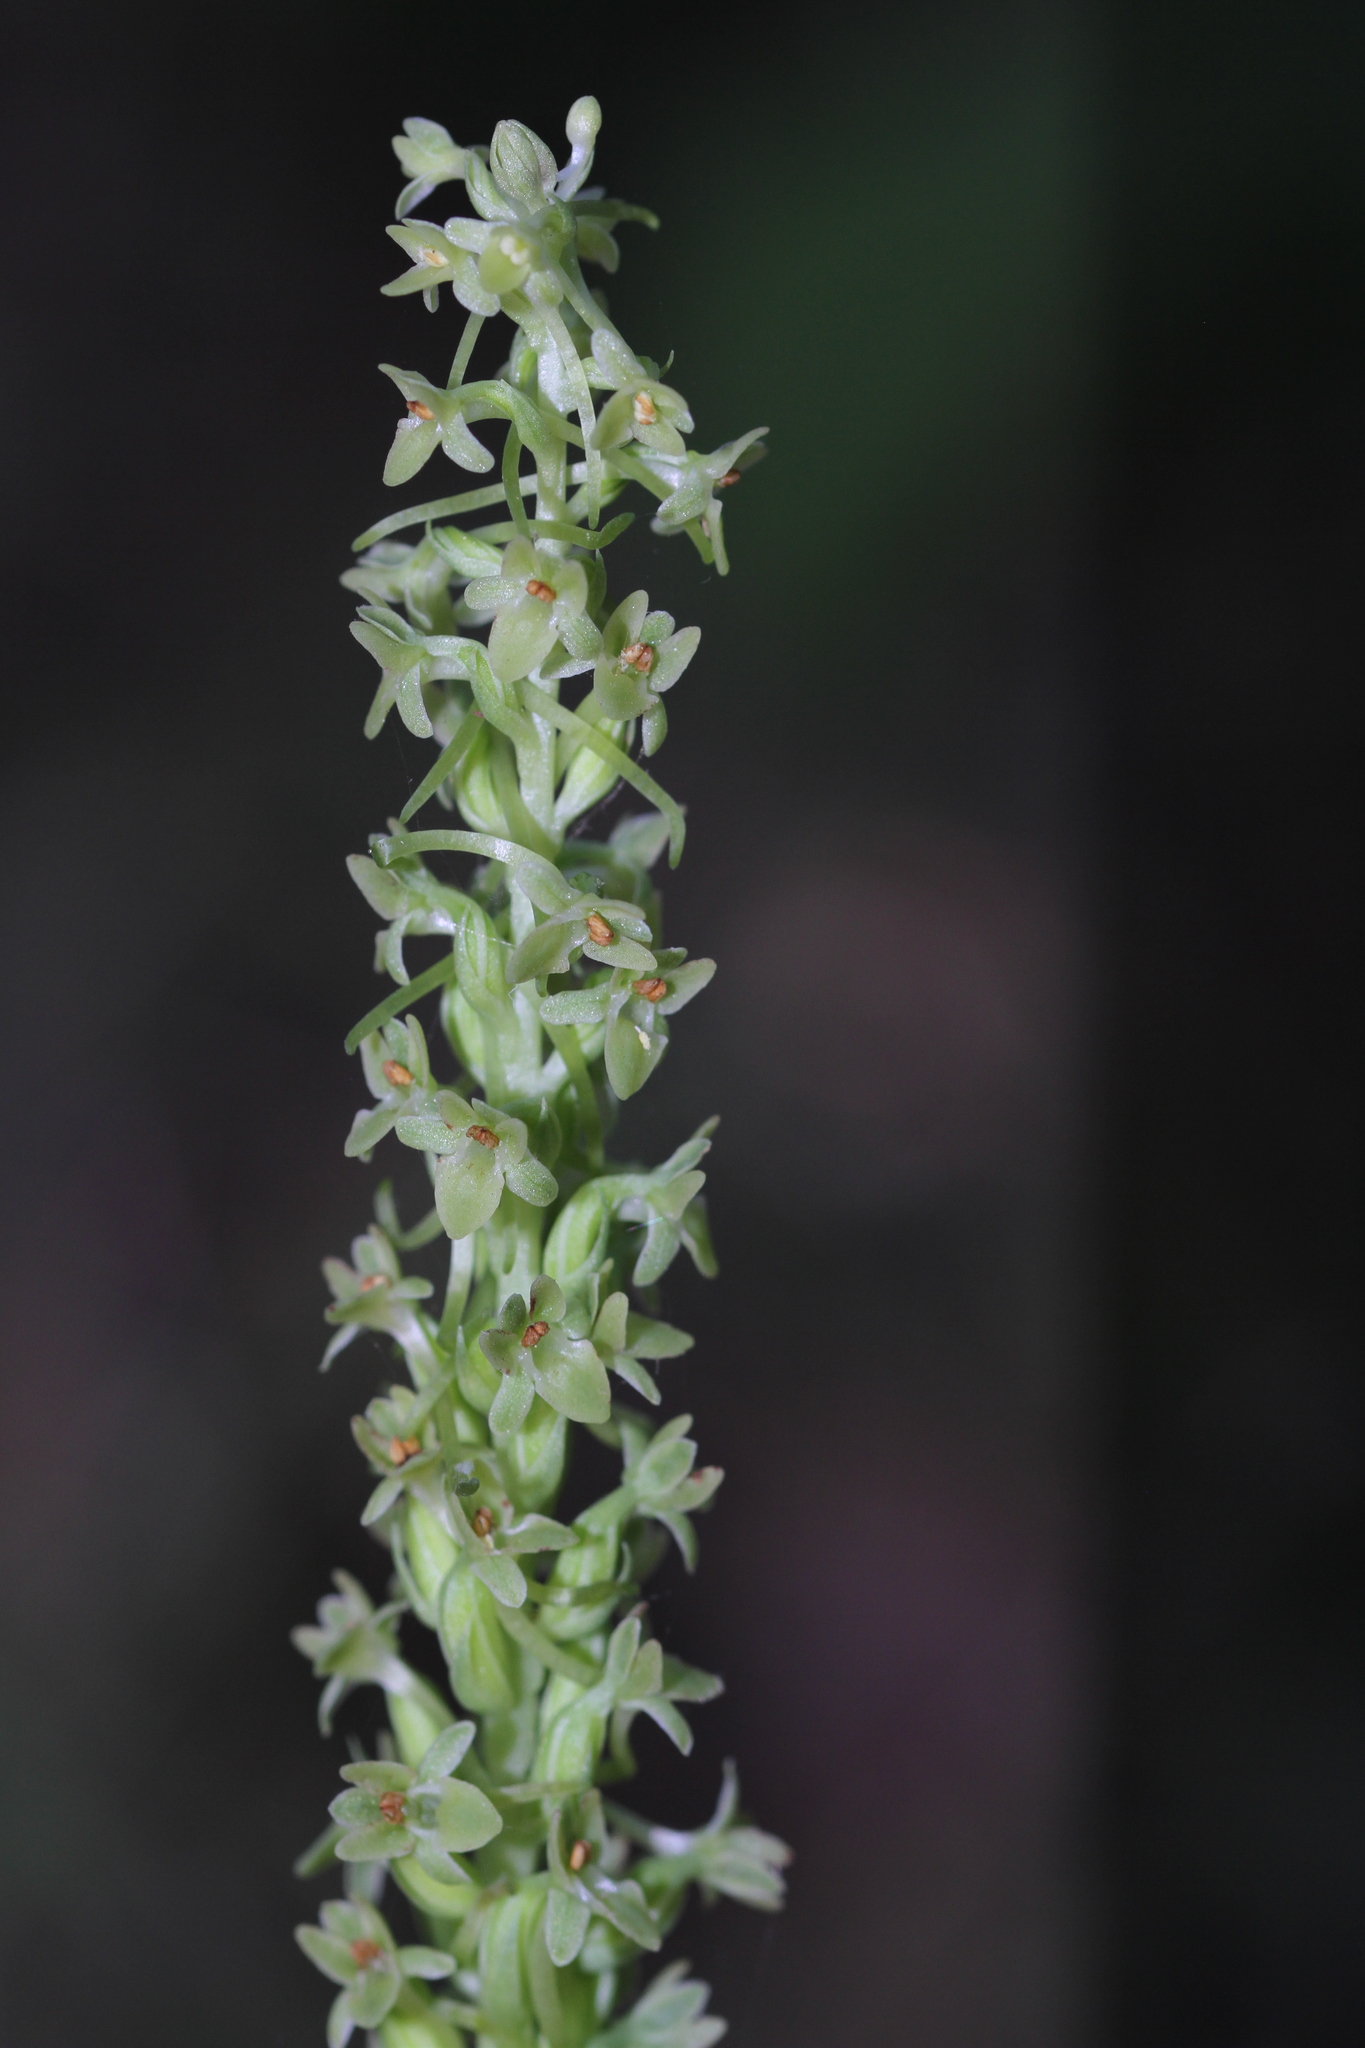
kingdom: Plantae
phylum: Tracheophyta
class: Liliopsida
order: Asparagales
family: Orchidaceae
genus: Platanthera
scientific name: Platanthera michaelii
